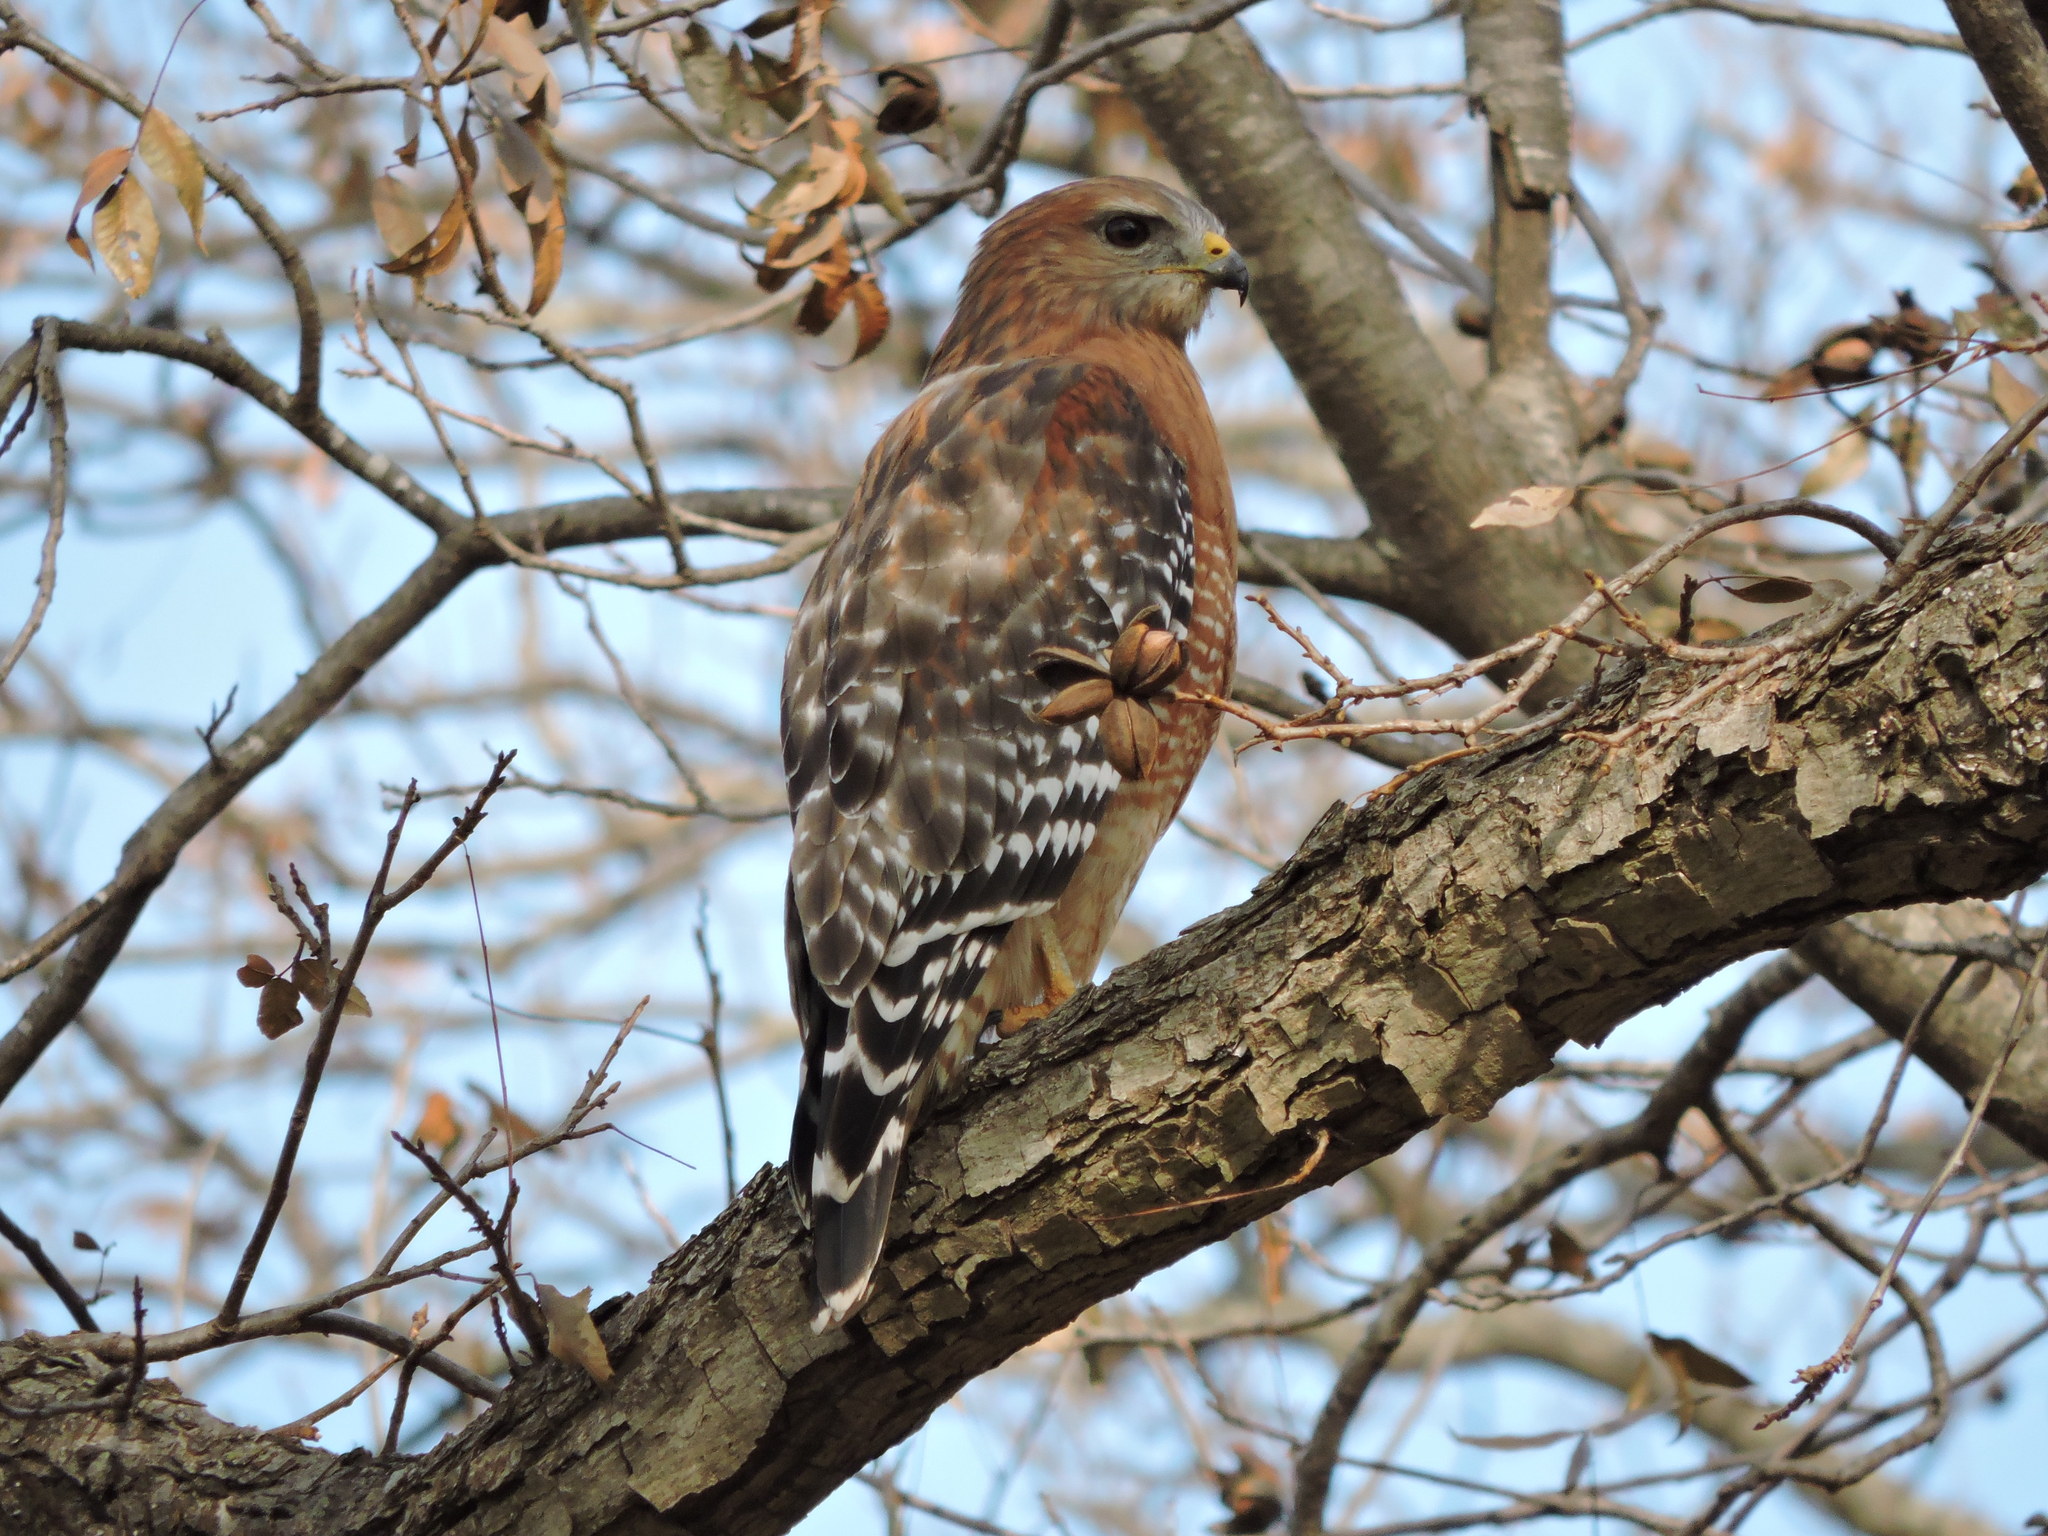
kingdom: Animalia
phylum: Chordata
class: Aves
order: Accipitriformes
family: Accipitridae
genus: Buteo
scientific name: Buteo lineatus
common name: Red-shouldered hawk
